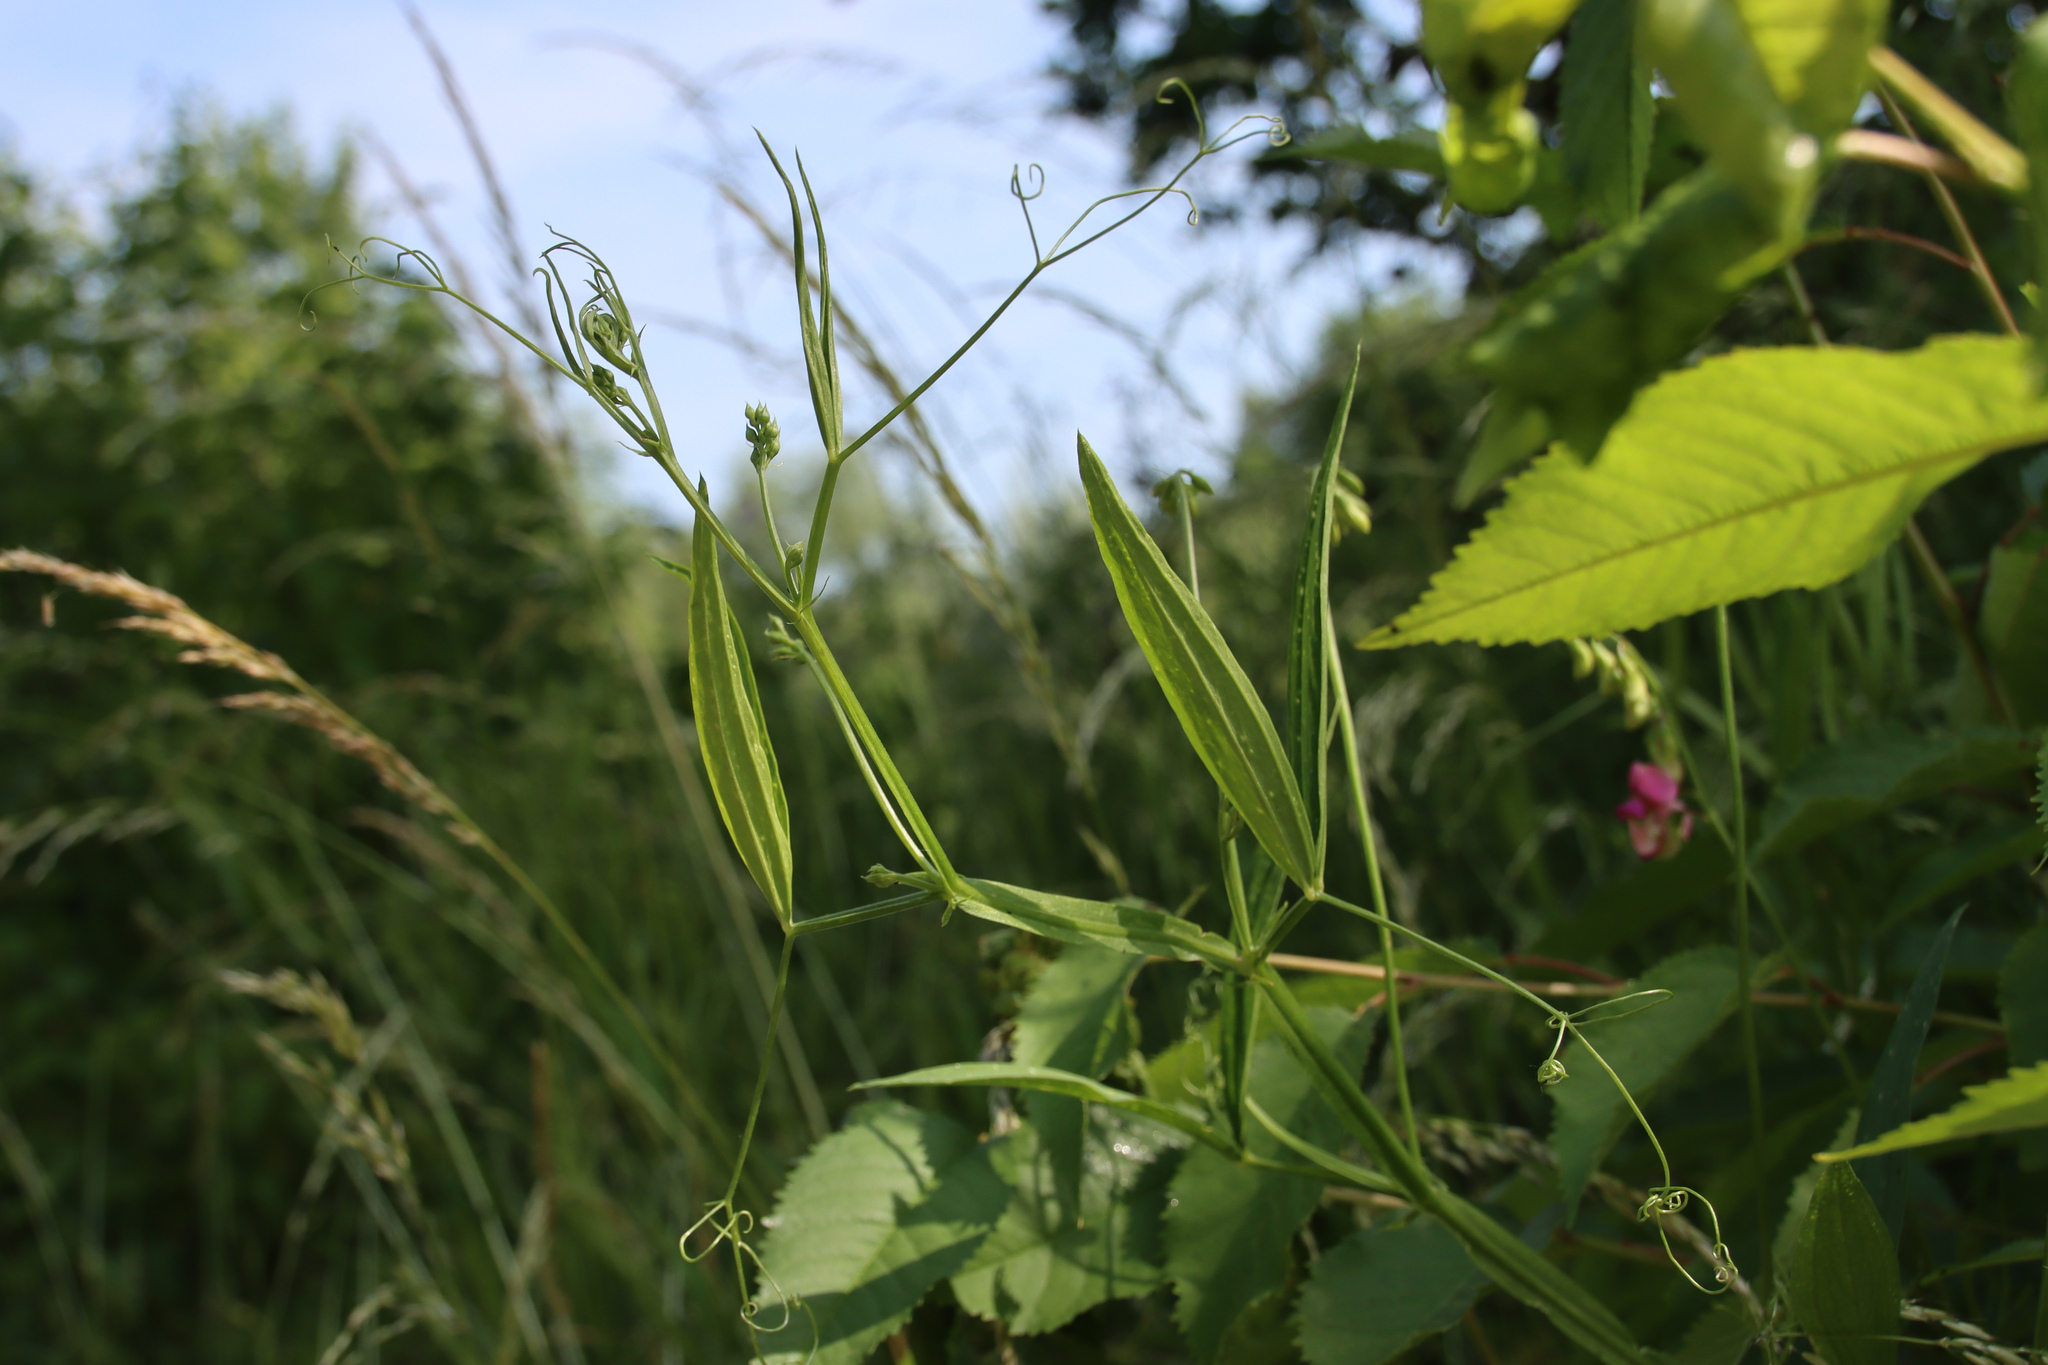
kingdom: Plantae
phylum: Tracheophyta
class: Magnoliopsida
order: Fabales
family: Fabaceae
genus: Lathyrus
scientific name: Lathyrus sylvestris
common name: Flat pea
